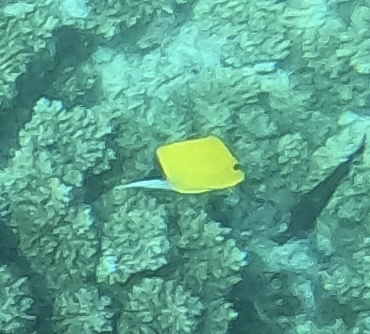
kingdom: Animalia
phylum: Chordata
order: Perciformes
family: Chaetodontidae
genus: Forcipiger
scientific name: Forcipiger flavissimus
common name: Forcepsfish
